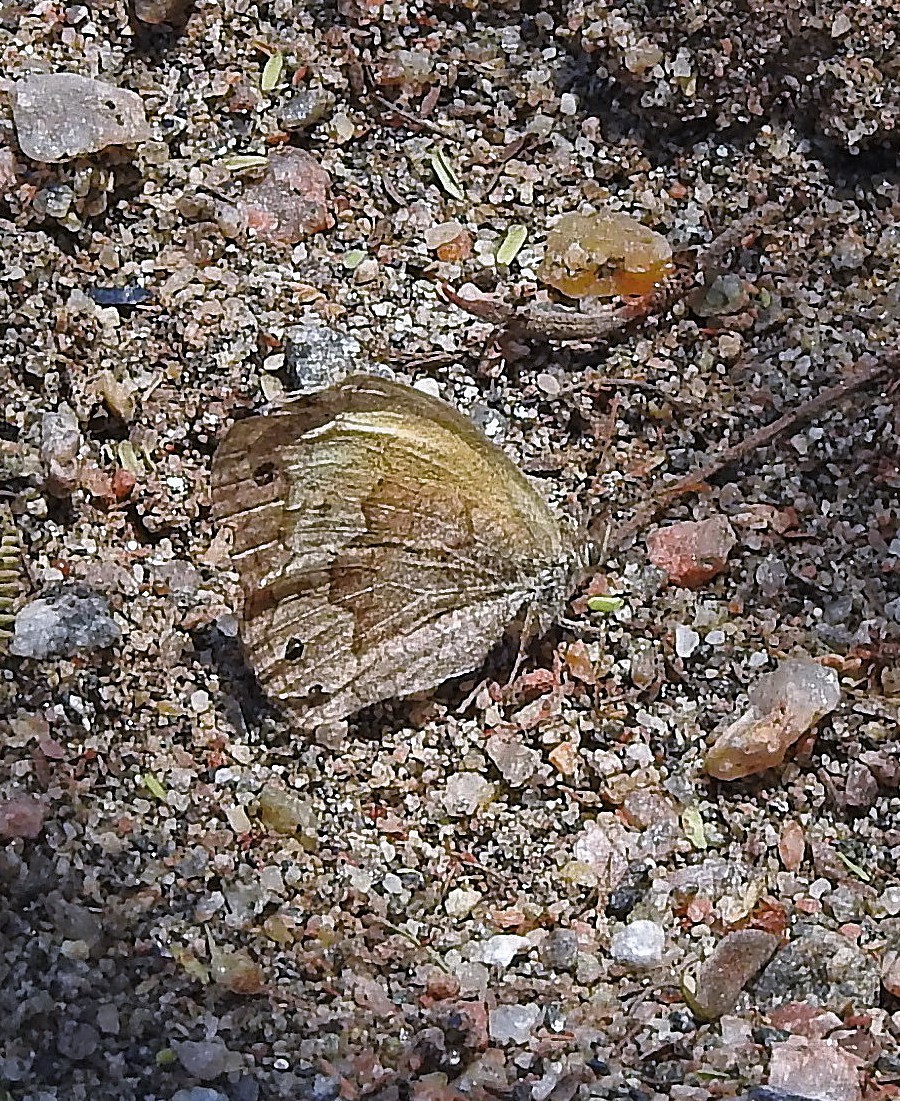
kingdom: Animalia
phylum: Arthropoda
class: Insecta
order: Lepidoptera
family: Nymphalidae
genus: Pharneuptychia
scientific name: Pharneuptychia phares
